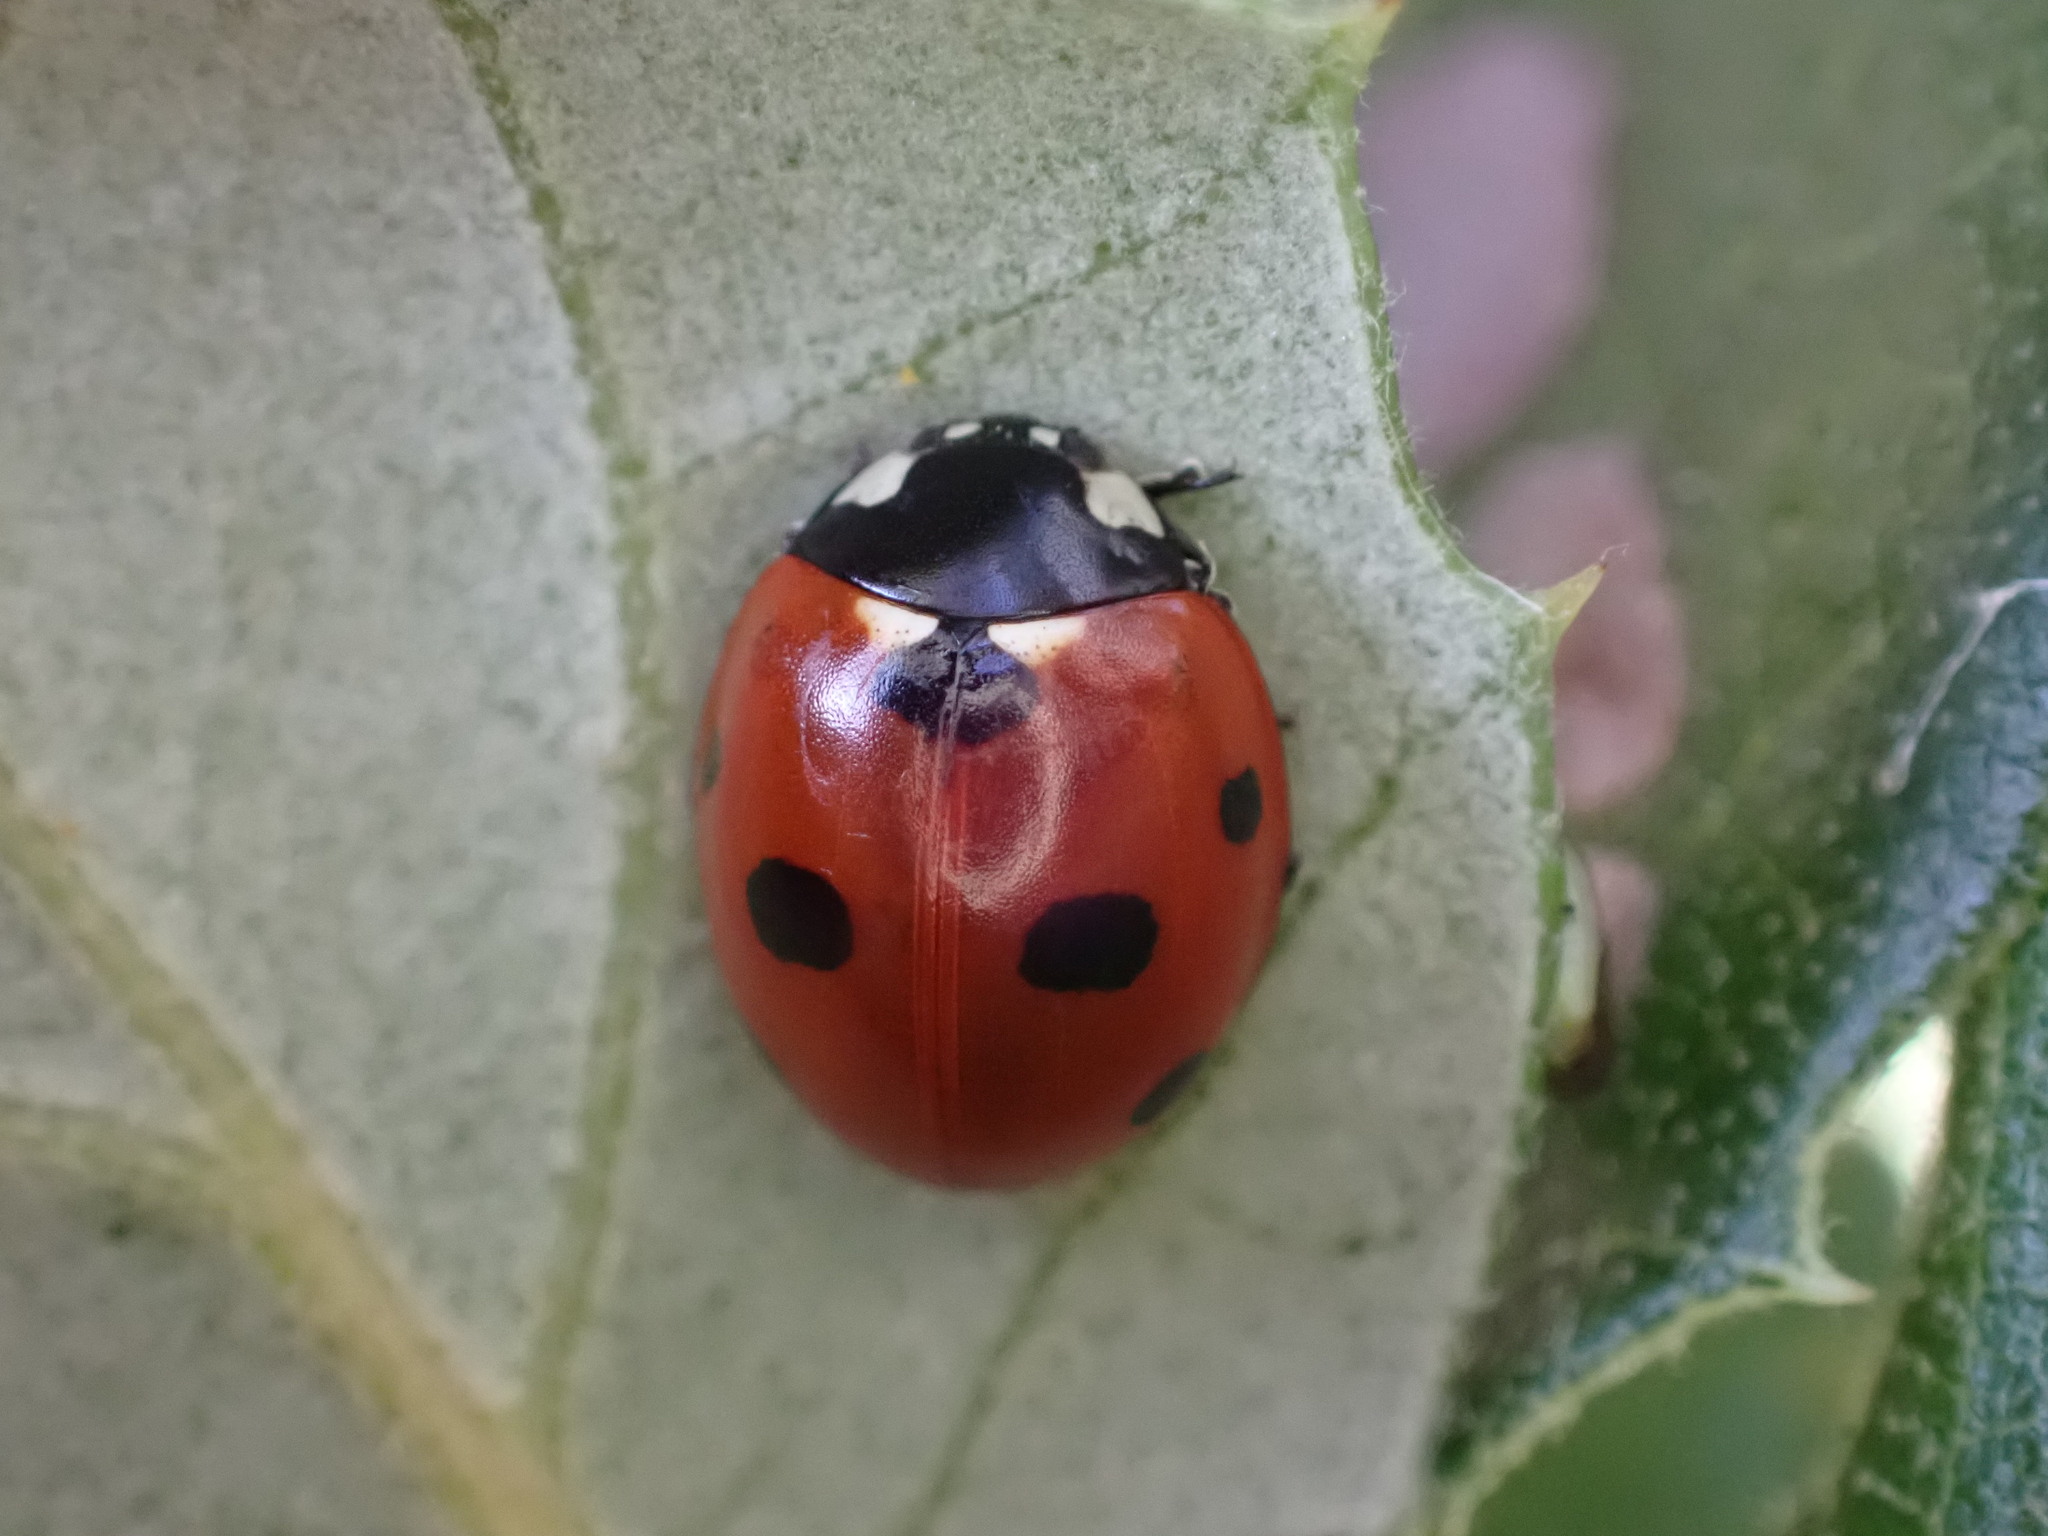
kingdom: Animalia
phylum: Arthropoda
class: Insecta
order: Coleoptera
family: Coccinellidae
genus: Coccinella
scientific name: Coccinella septempunctata
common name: Sevenspotted lady beetle
